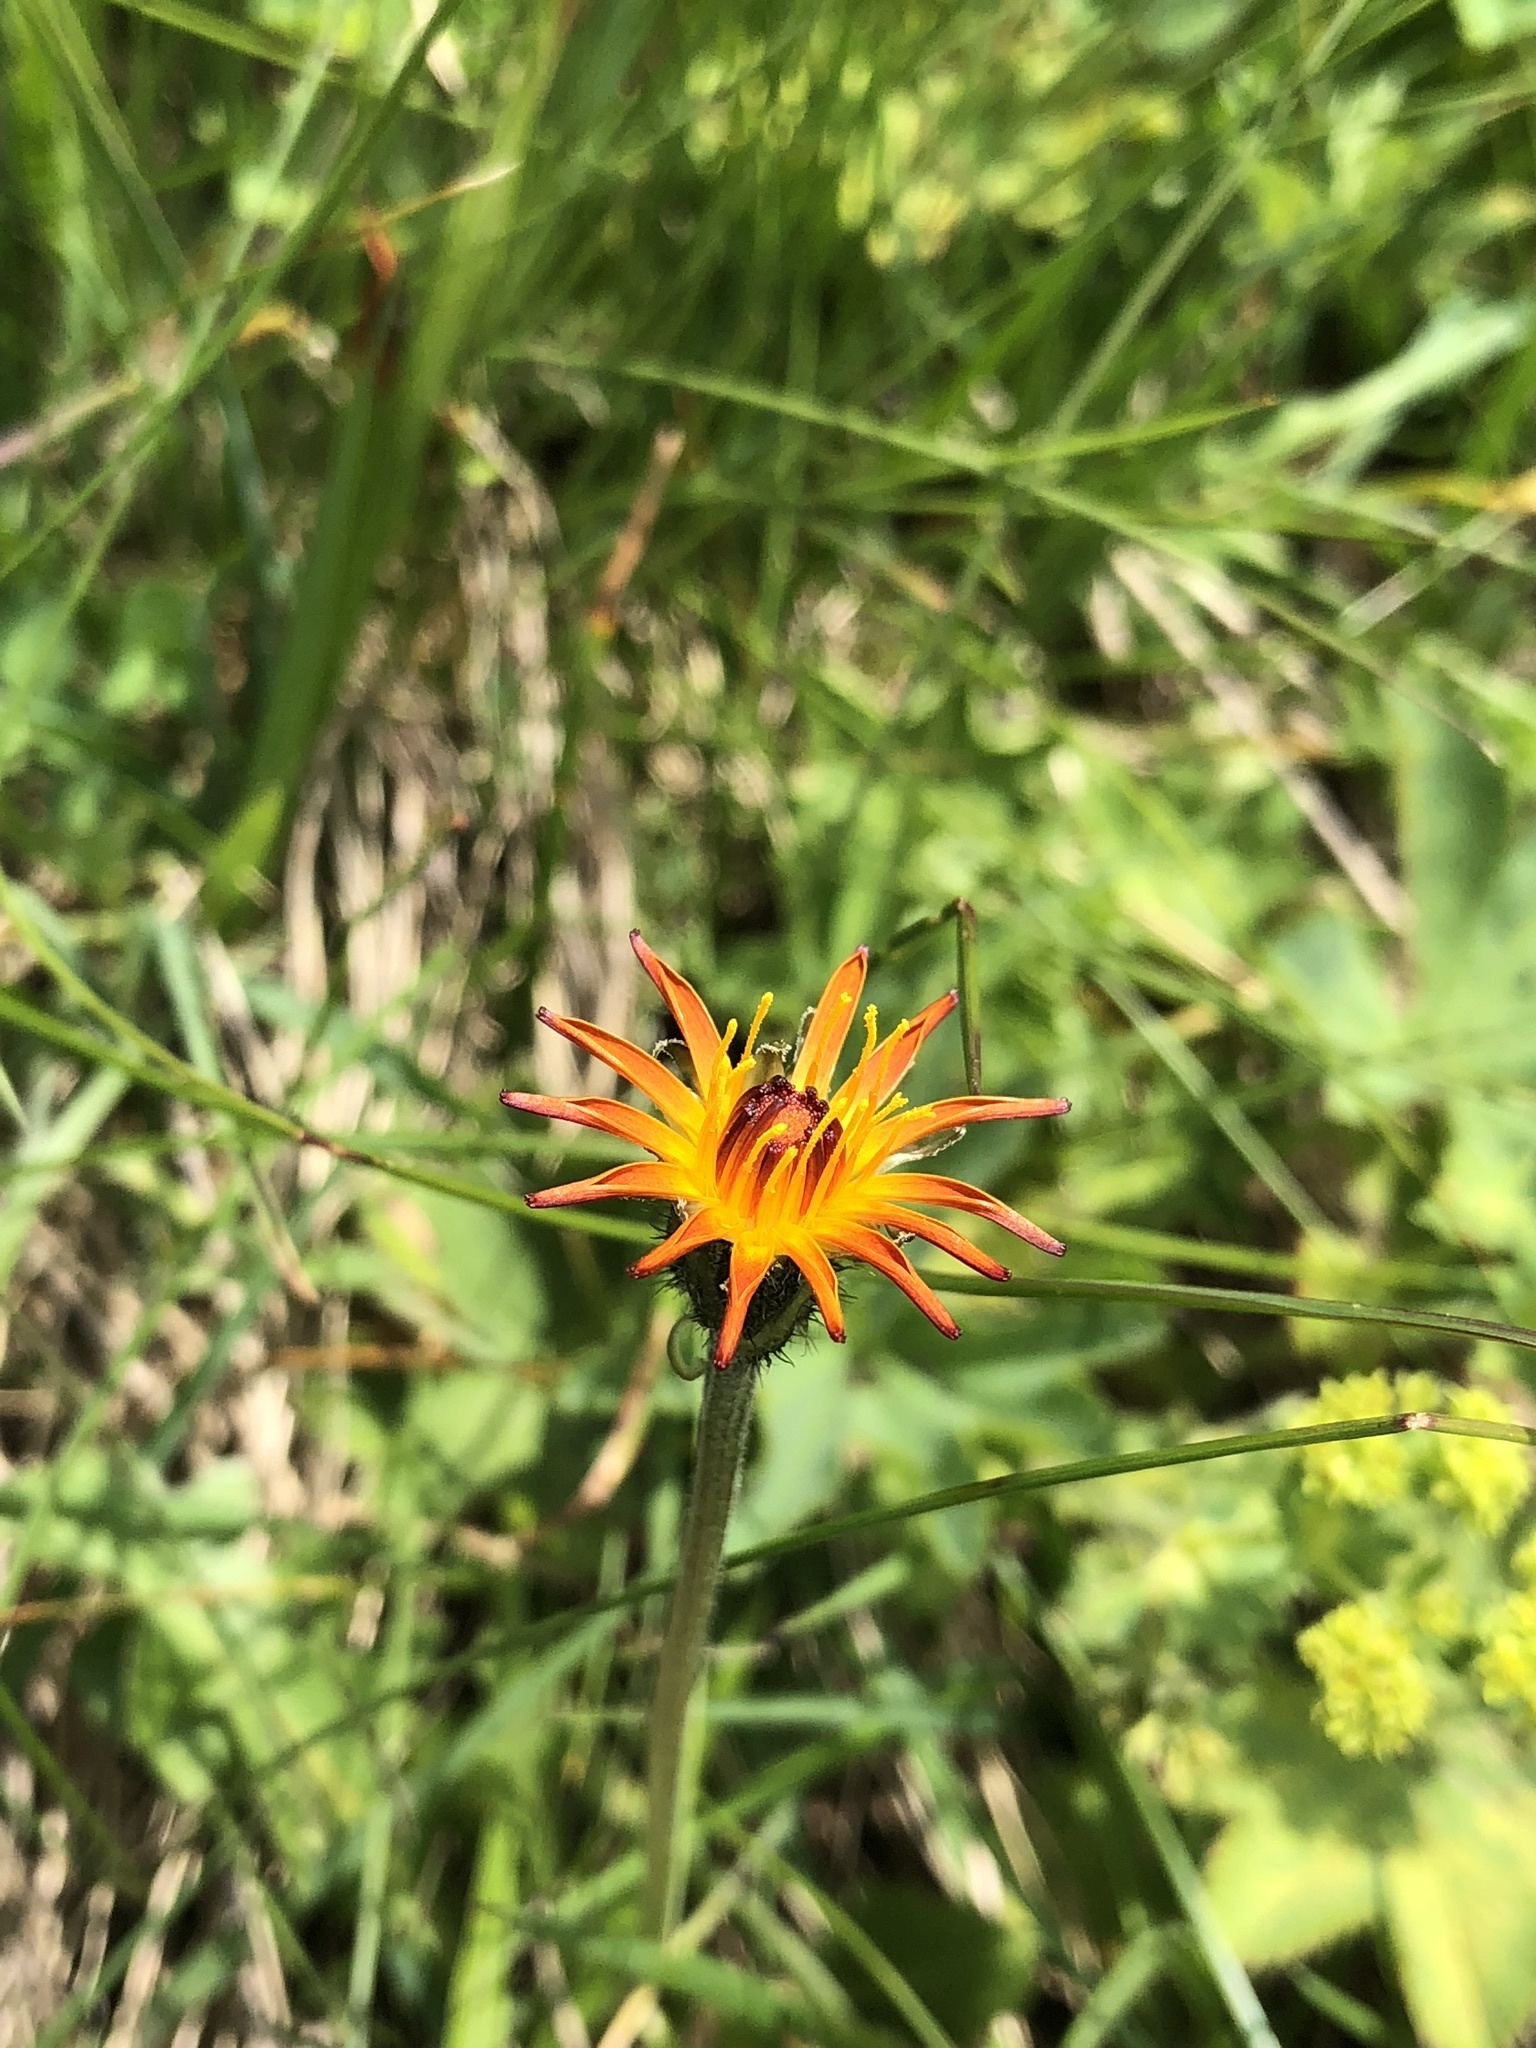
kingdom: Plantae
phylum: Tracheophyta
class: Magnoliopsida
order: Asterales
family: Asteraceae
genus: Crepis
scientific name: Crepis aurea
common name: Golden hawk's-beard
